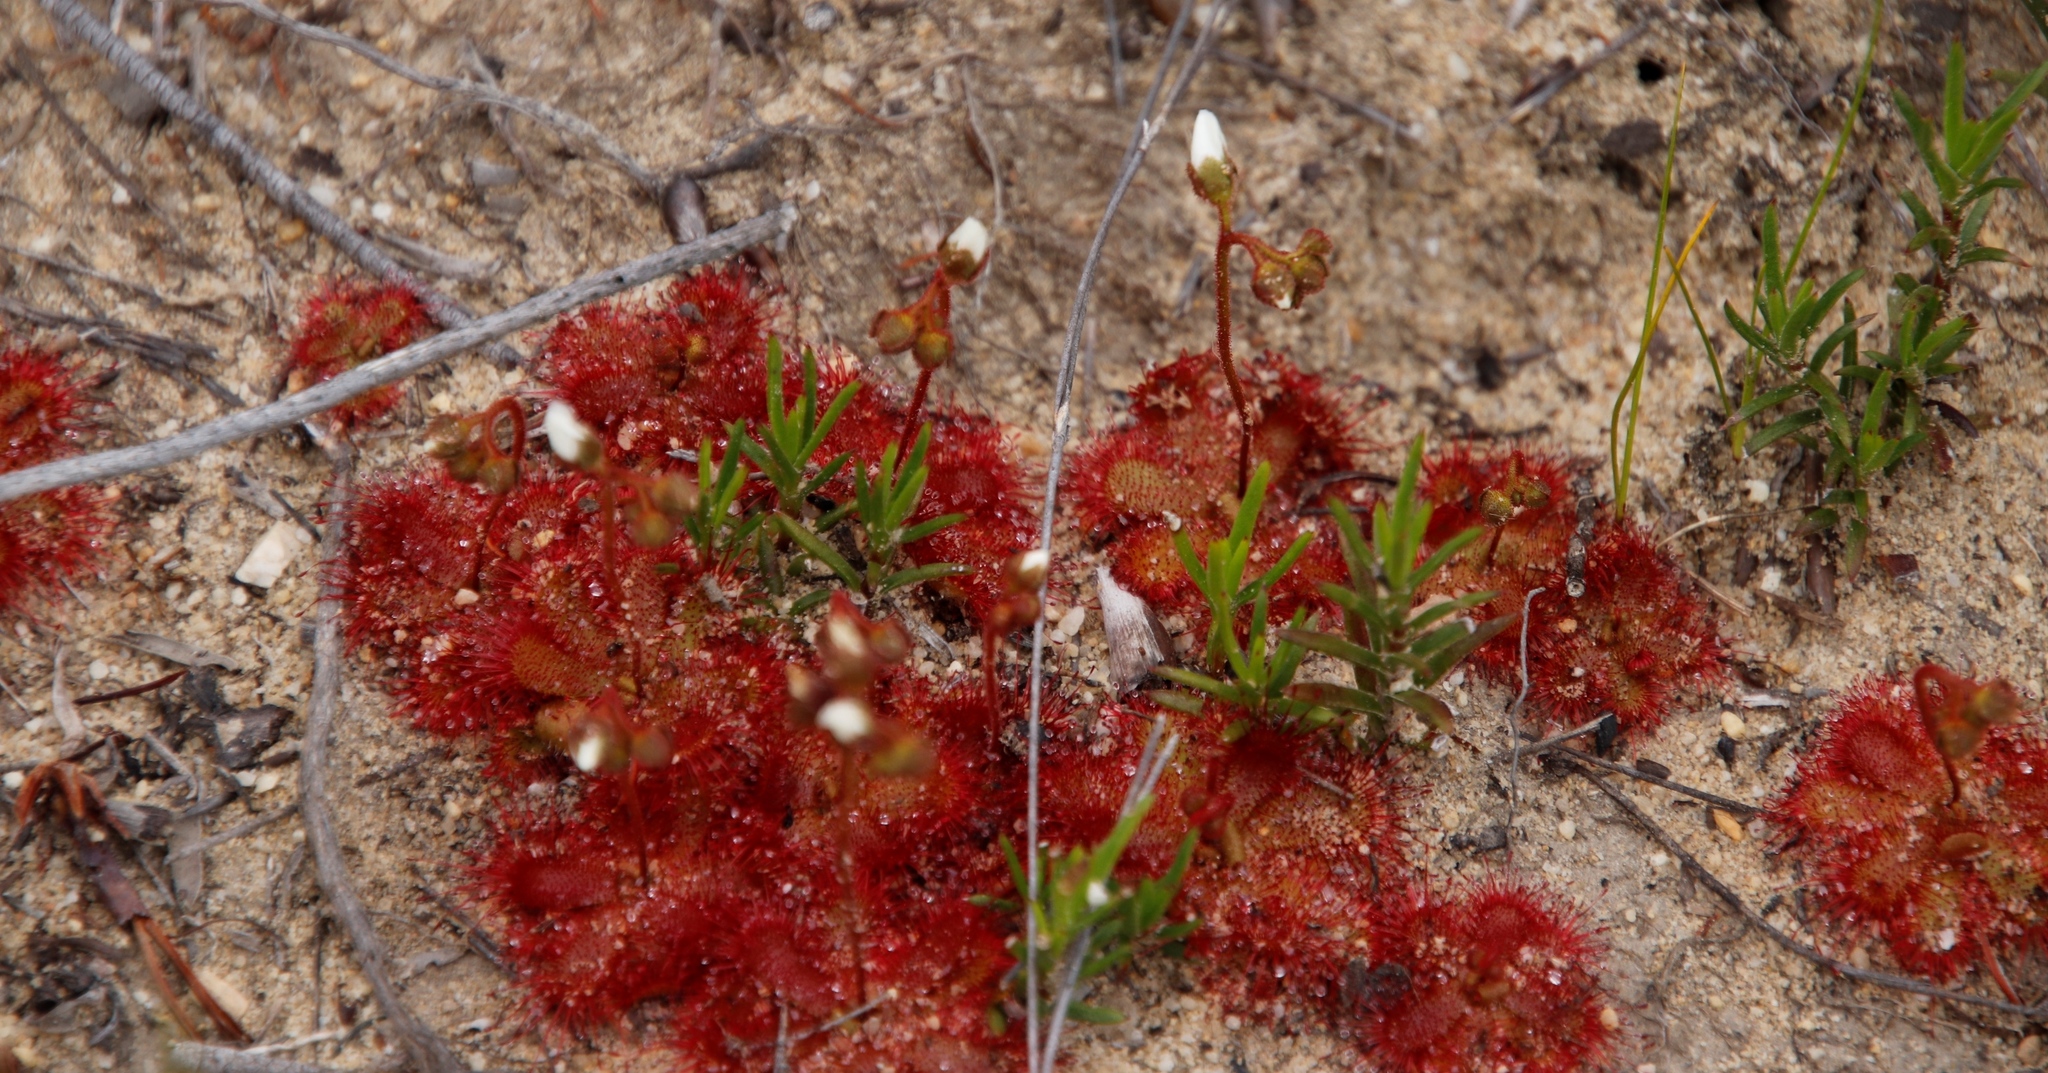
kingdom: Plantae
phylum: Tracheophyta
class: Magnoliopsida
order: Caryophyllales
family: Droseraceae
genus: Drosera
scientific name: Drosera trinervia
